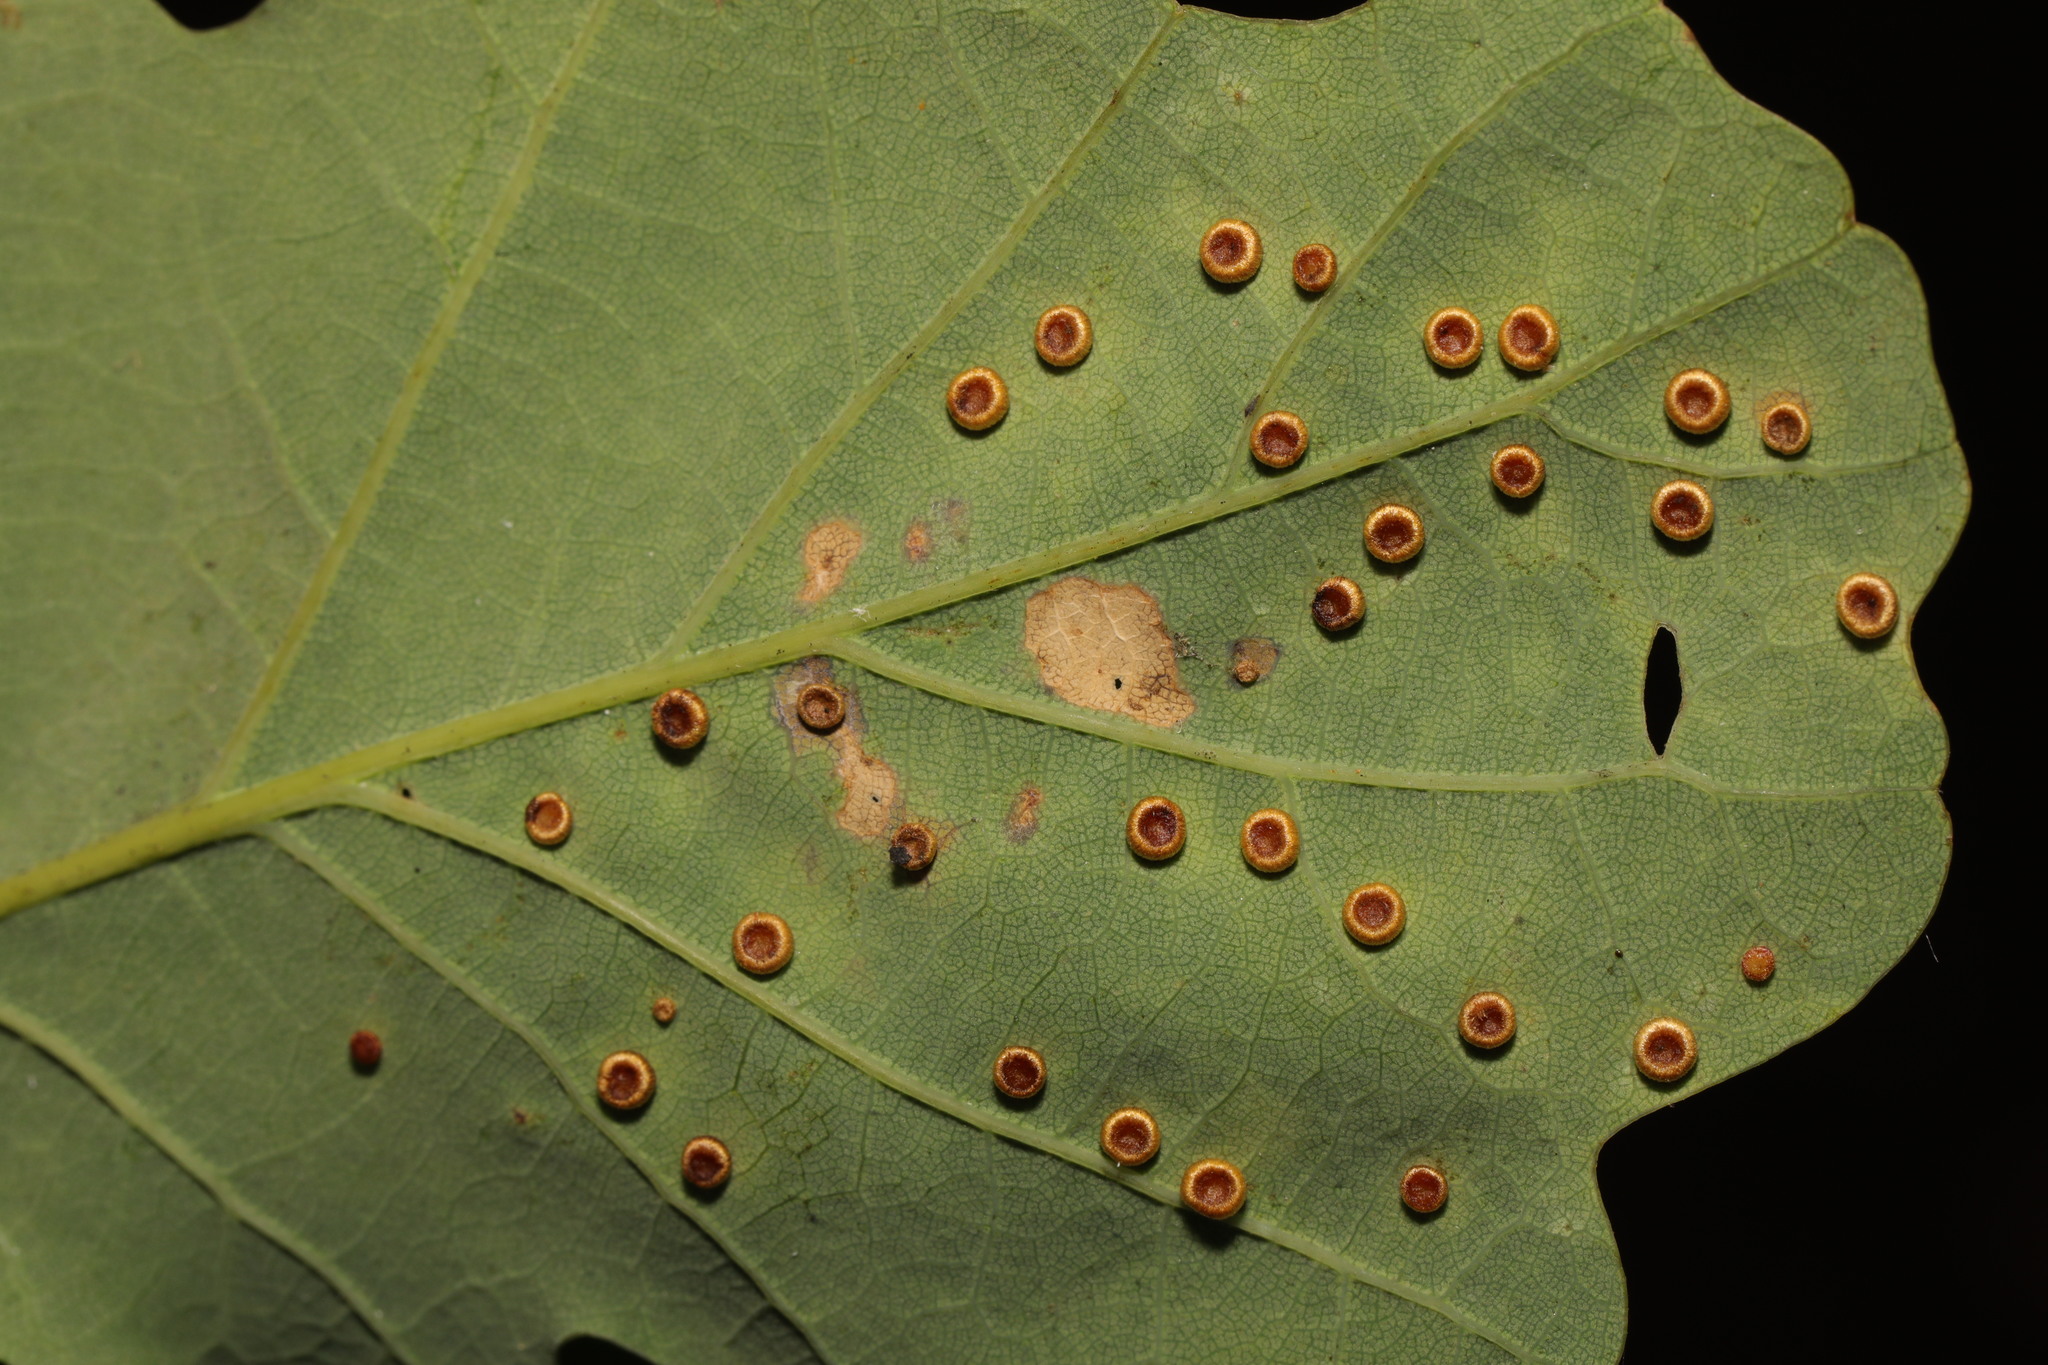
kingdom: Animalia
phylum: Arthropoda
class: Insecta
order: Hymenoptera
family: Cynipidae
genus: Neuroterus
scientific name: Neuroterus numismalis
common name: Silk-button spangle gall
